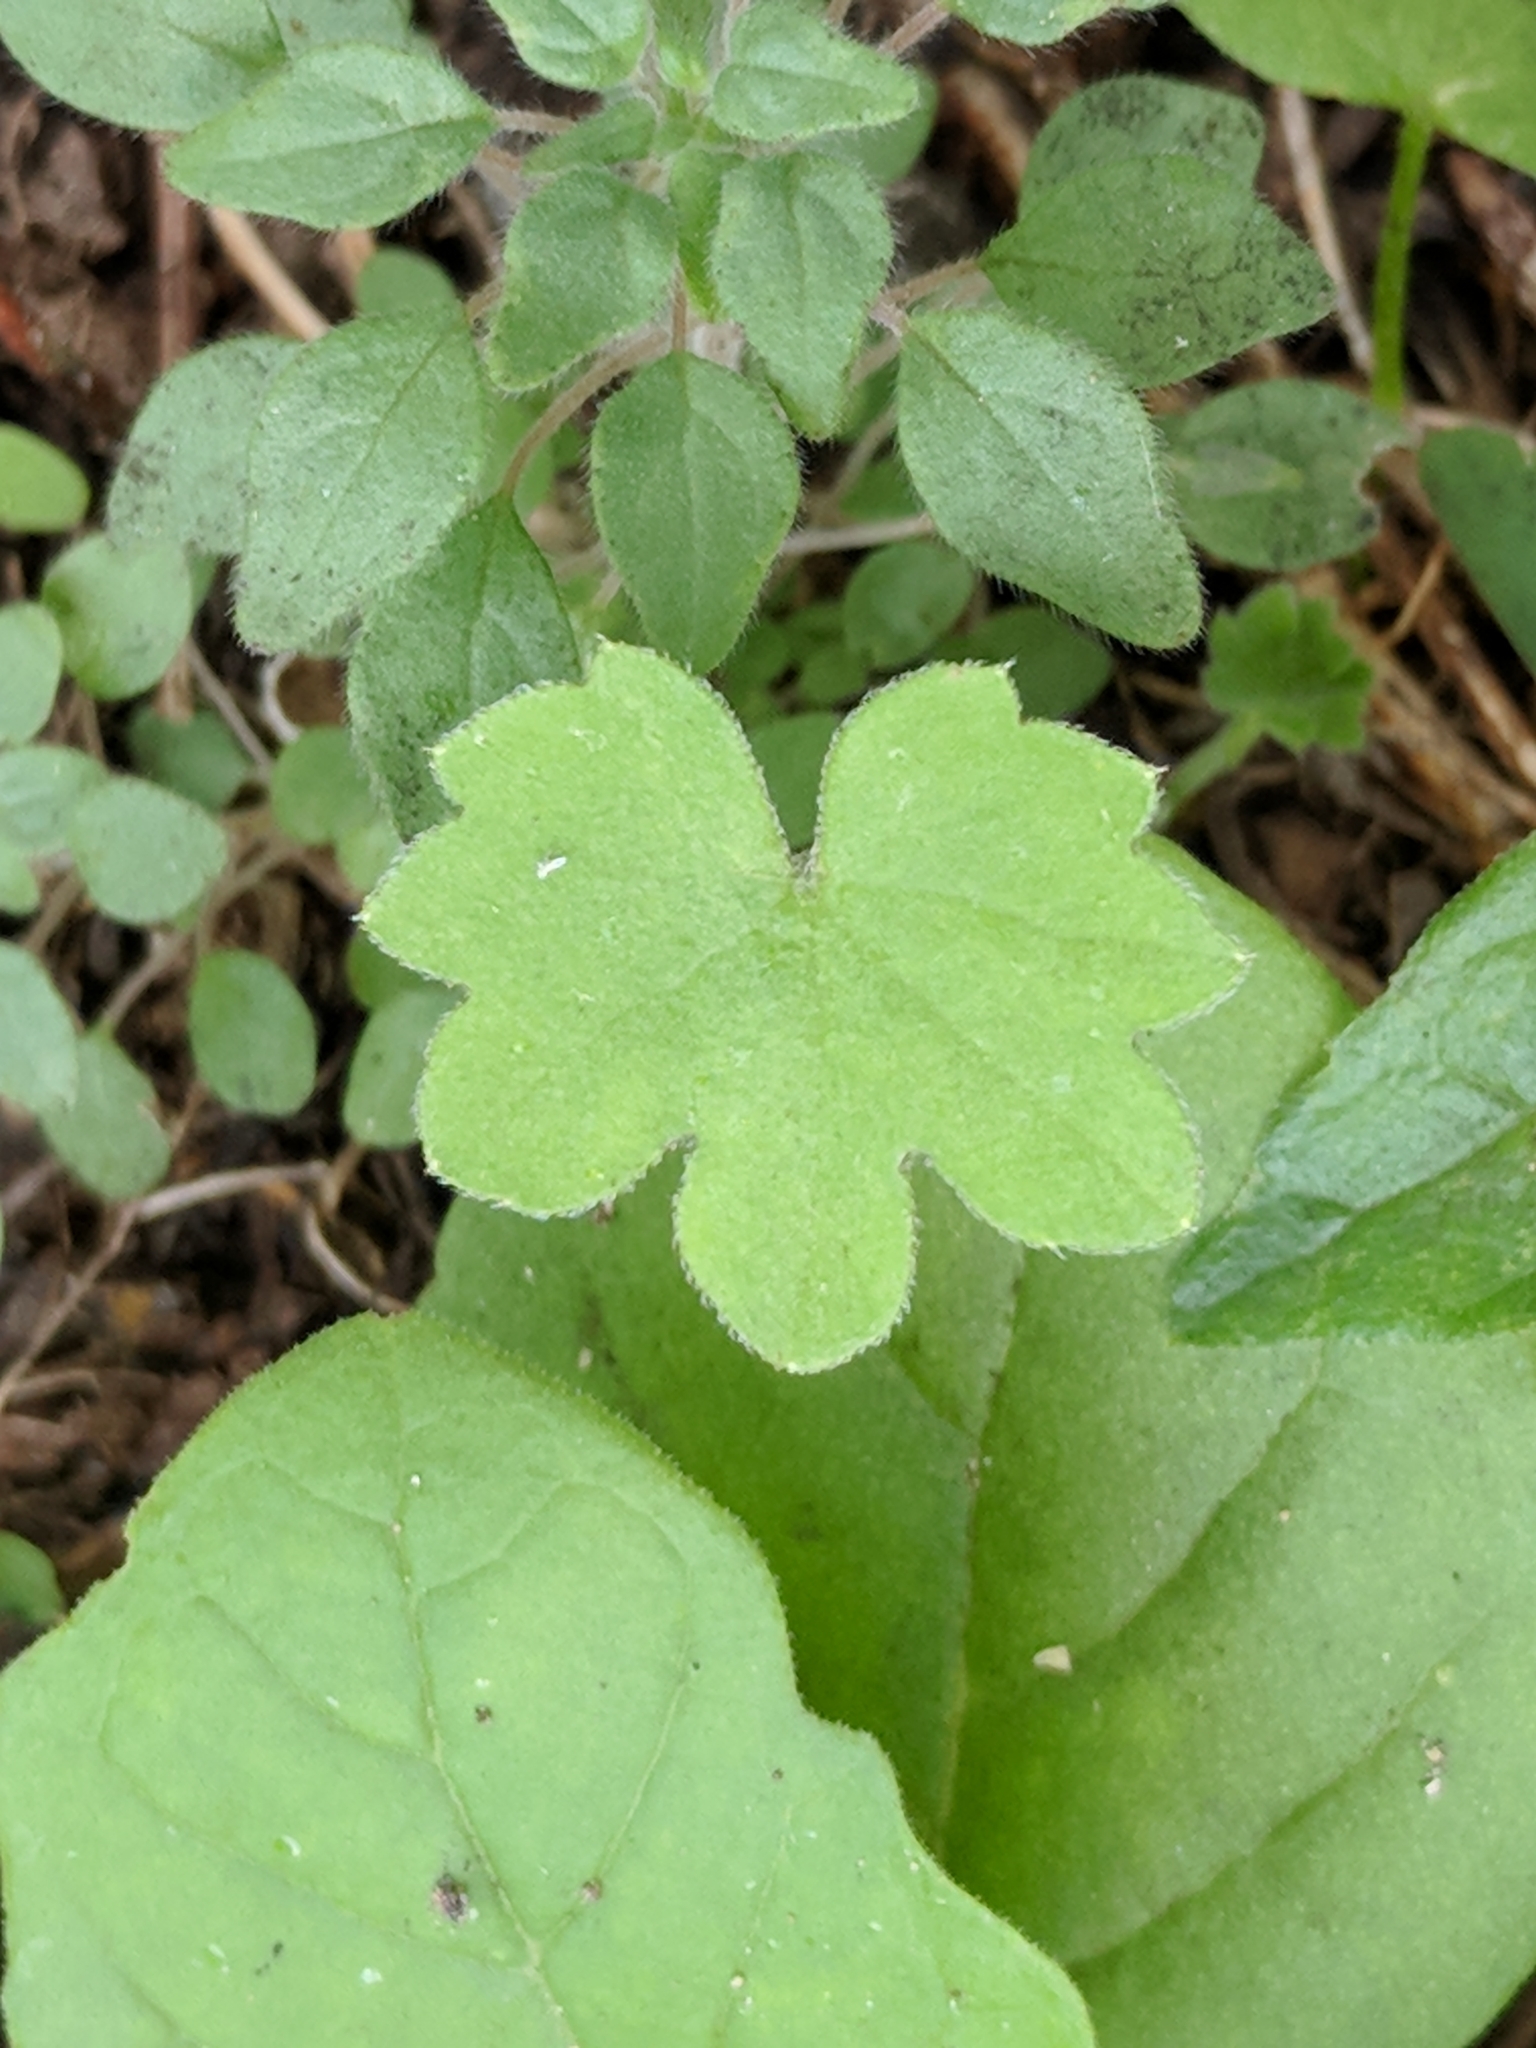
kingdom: Plantae
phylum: Tracheophyta
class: Magnoliopsida
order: Apiales
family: Apiaceae
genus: Bowlesia
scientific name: Bowlesia incana
